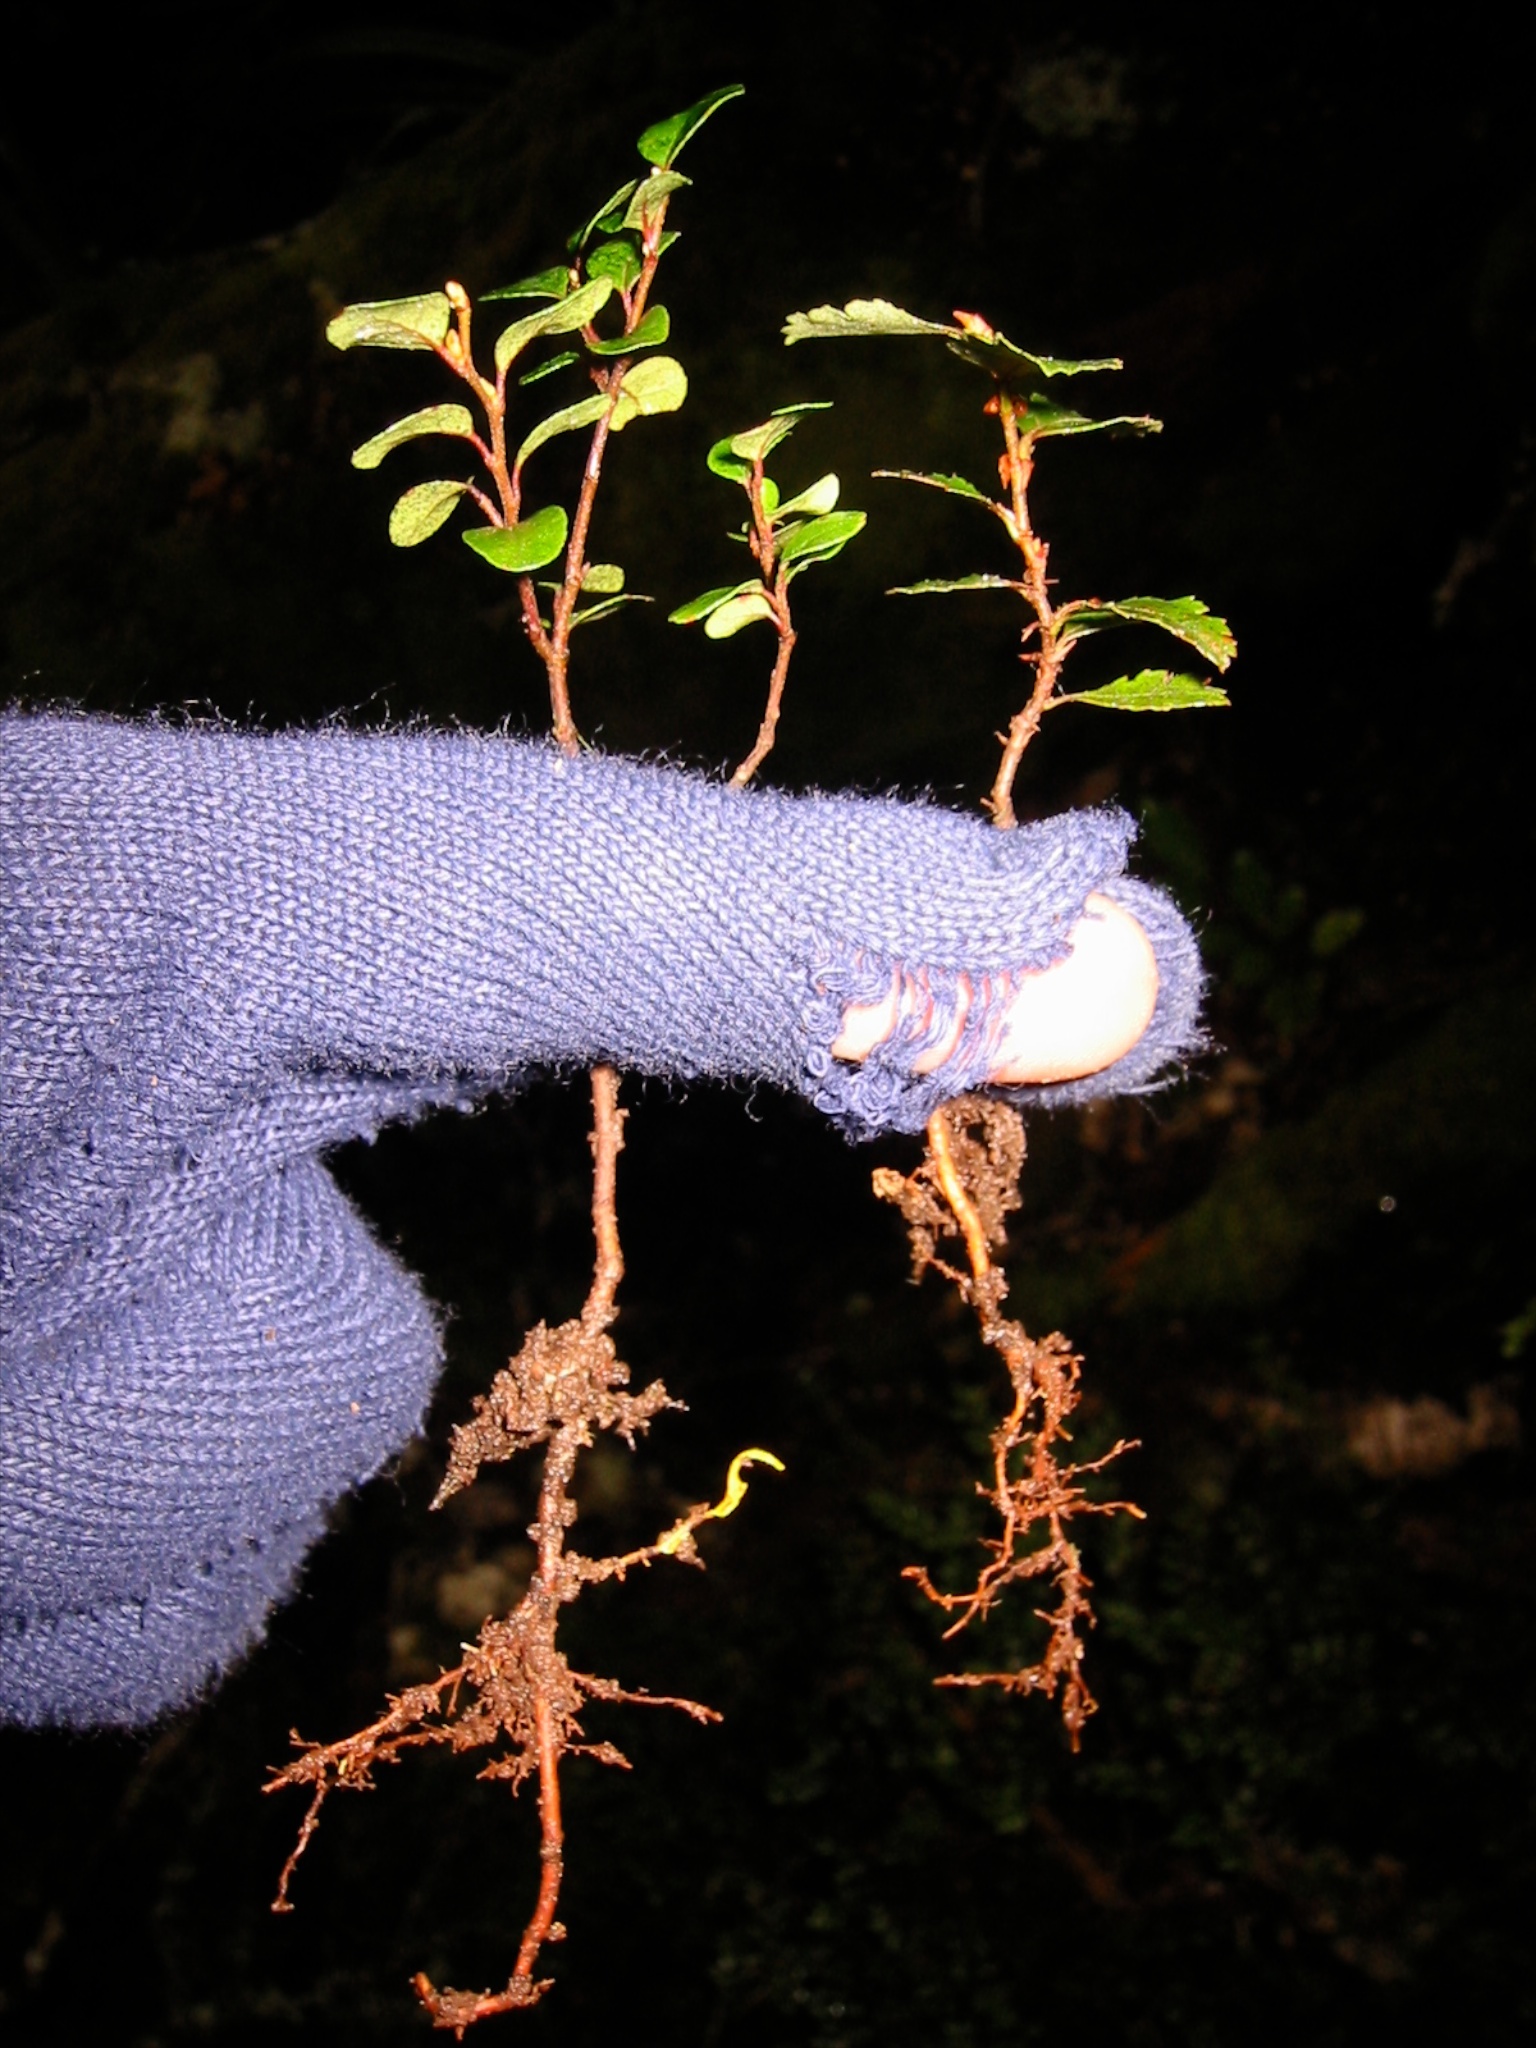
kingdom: Plantae
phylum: Tracheophyta
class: Magnoliopsida
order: Fagales
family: Nothofagaceae
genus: Nothofagus
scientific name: Nothofagus cliffortioides
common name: Mountain beech
